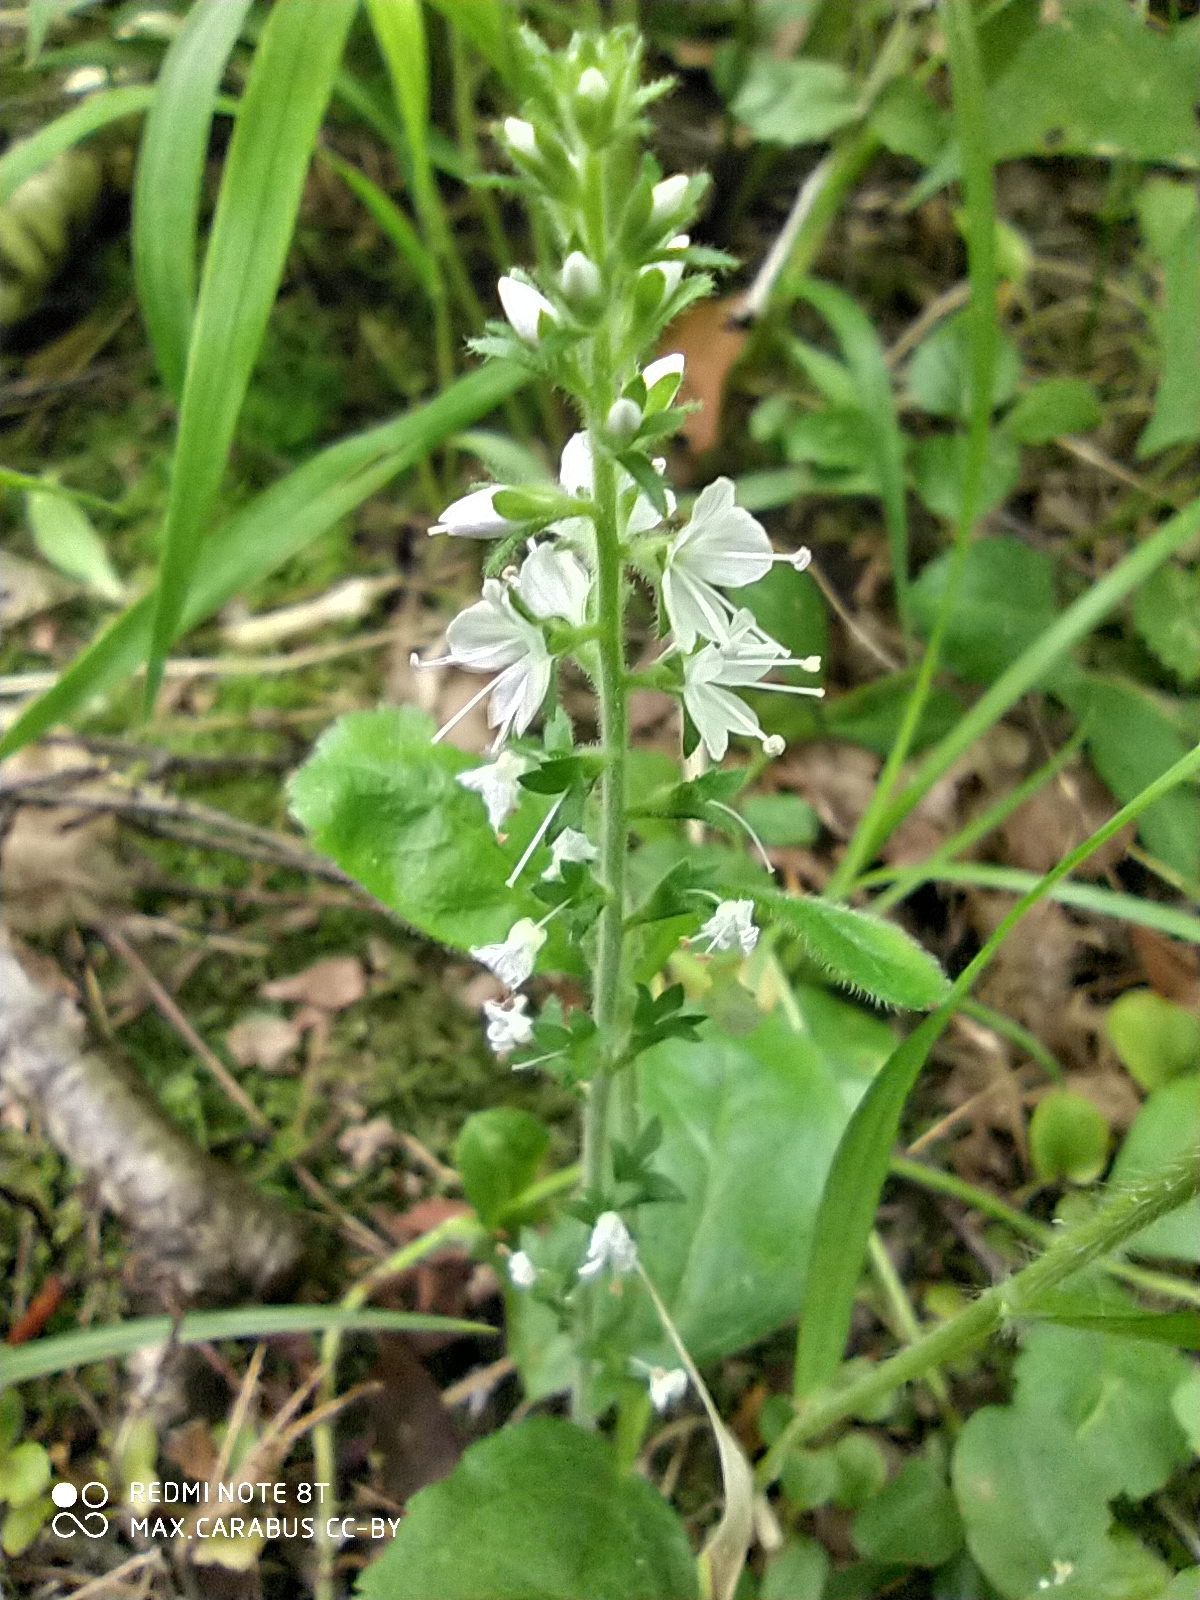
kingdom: Plantae
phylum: Tracheophyta
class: Magnoliopsida
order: Lamiales
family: Plantaginaceae
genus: Veronica
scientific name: Veronica officinalis
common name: Common speedwell
